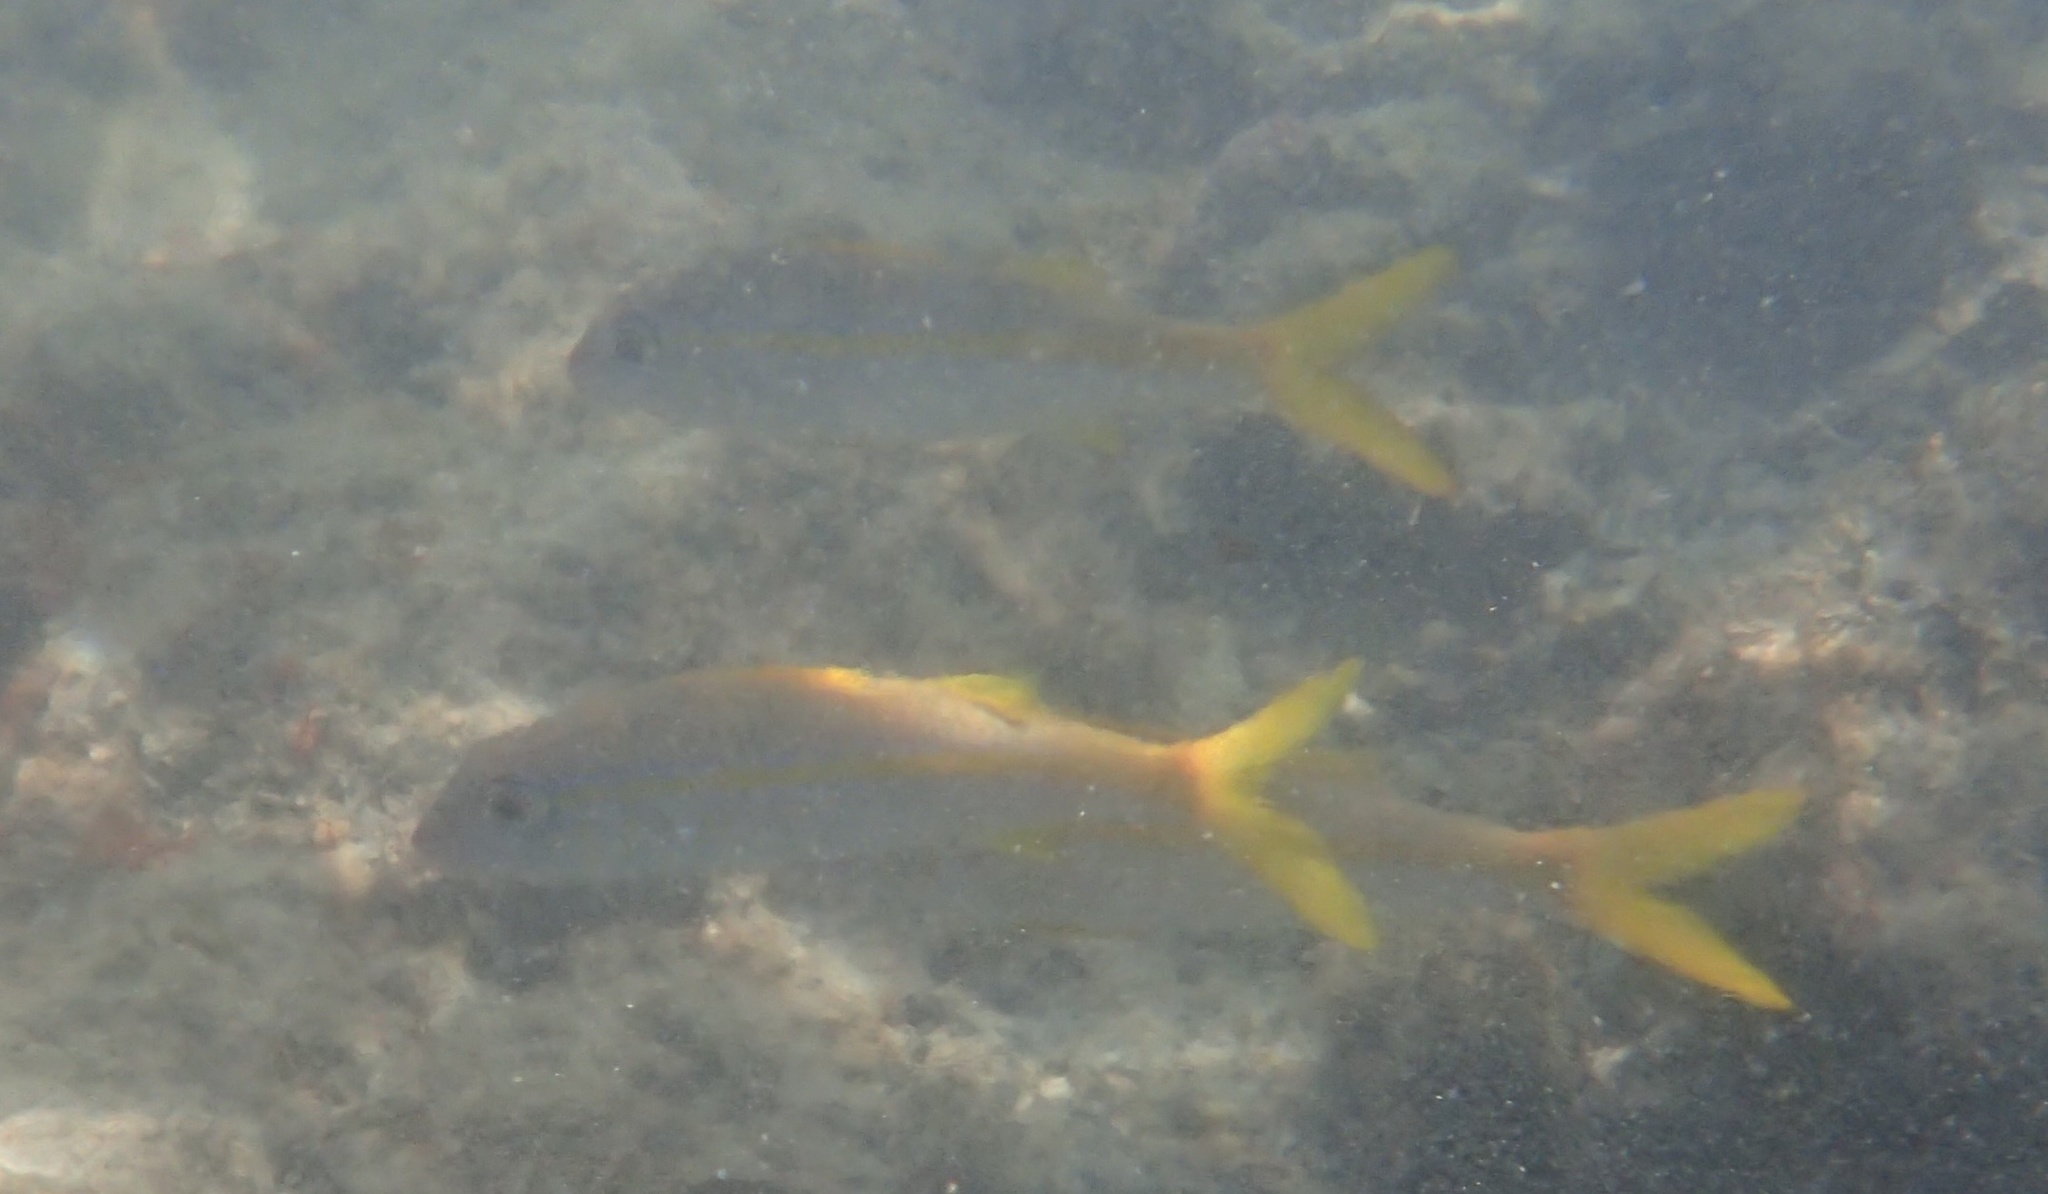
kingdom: Animalia
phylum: Chordata
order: Perciformes
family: Mullidae
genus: Mulloidichthys
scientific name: Mulloidichthys vanicolensis
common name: Yellowfin goatfish
